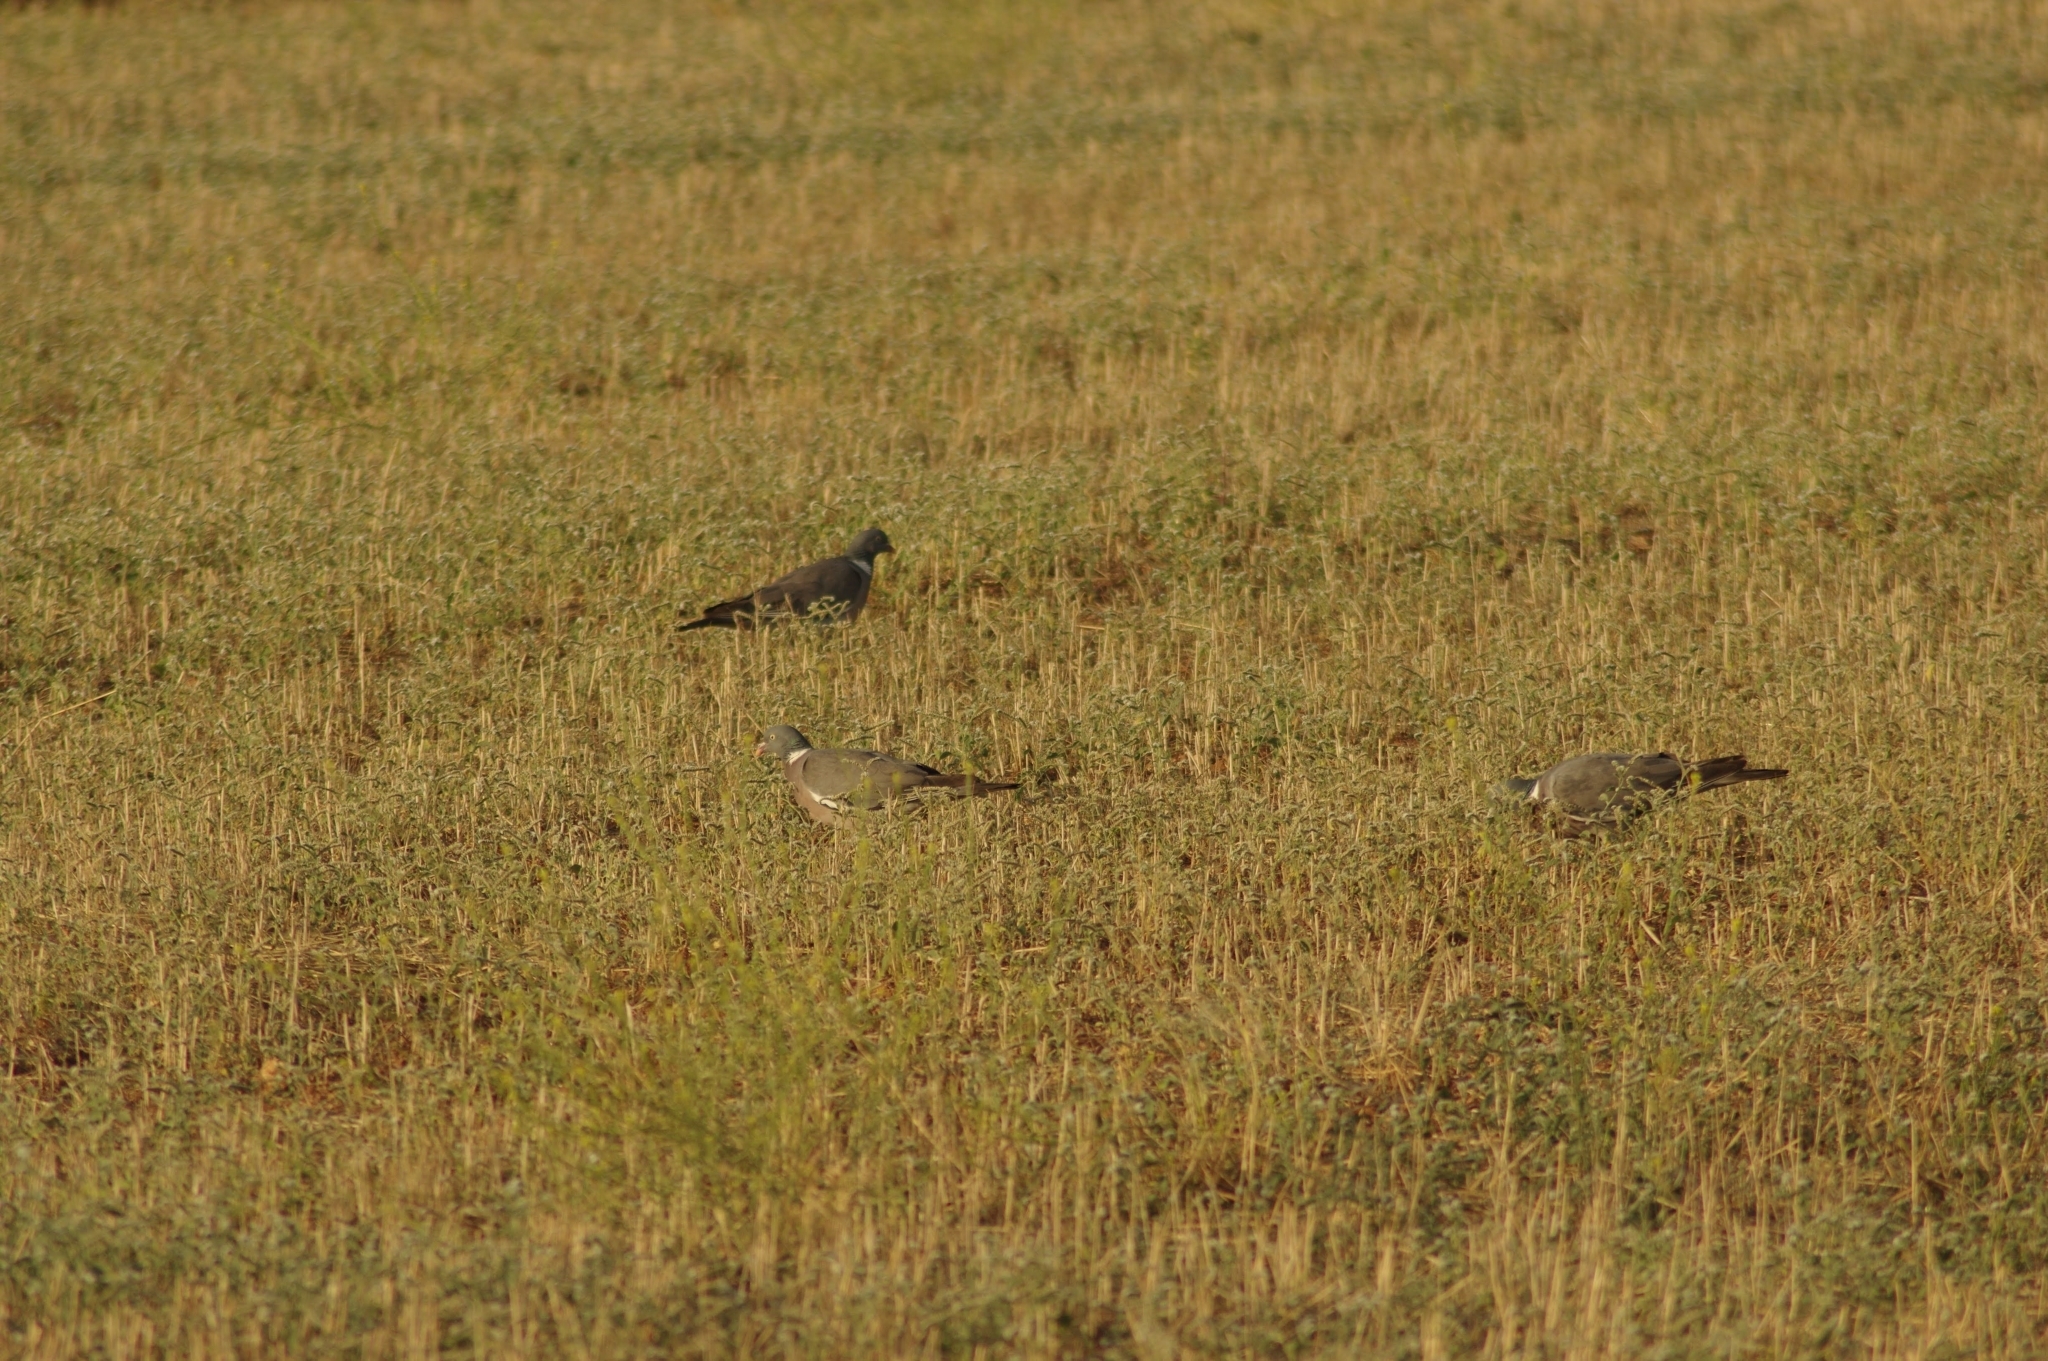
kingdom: Animalia
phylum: Chordata
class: Aves
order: Columbiformes
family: Columbidae
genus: Columba
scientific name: Columba palumbus
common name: Common wood pigeon
